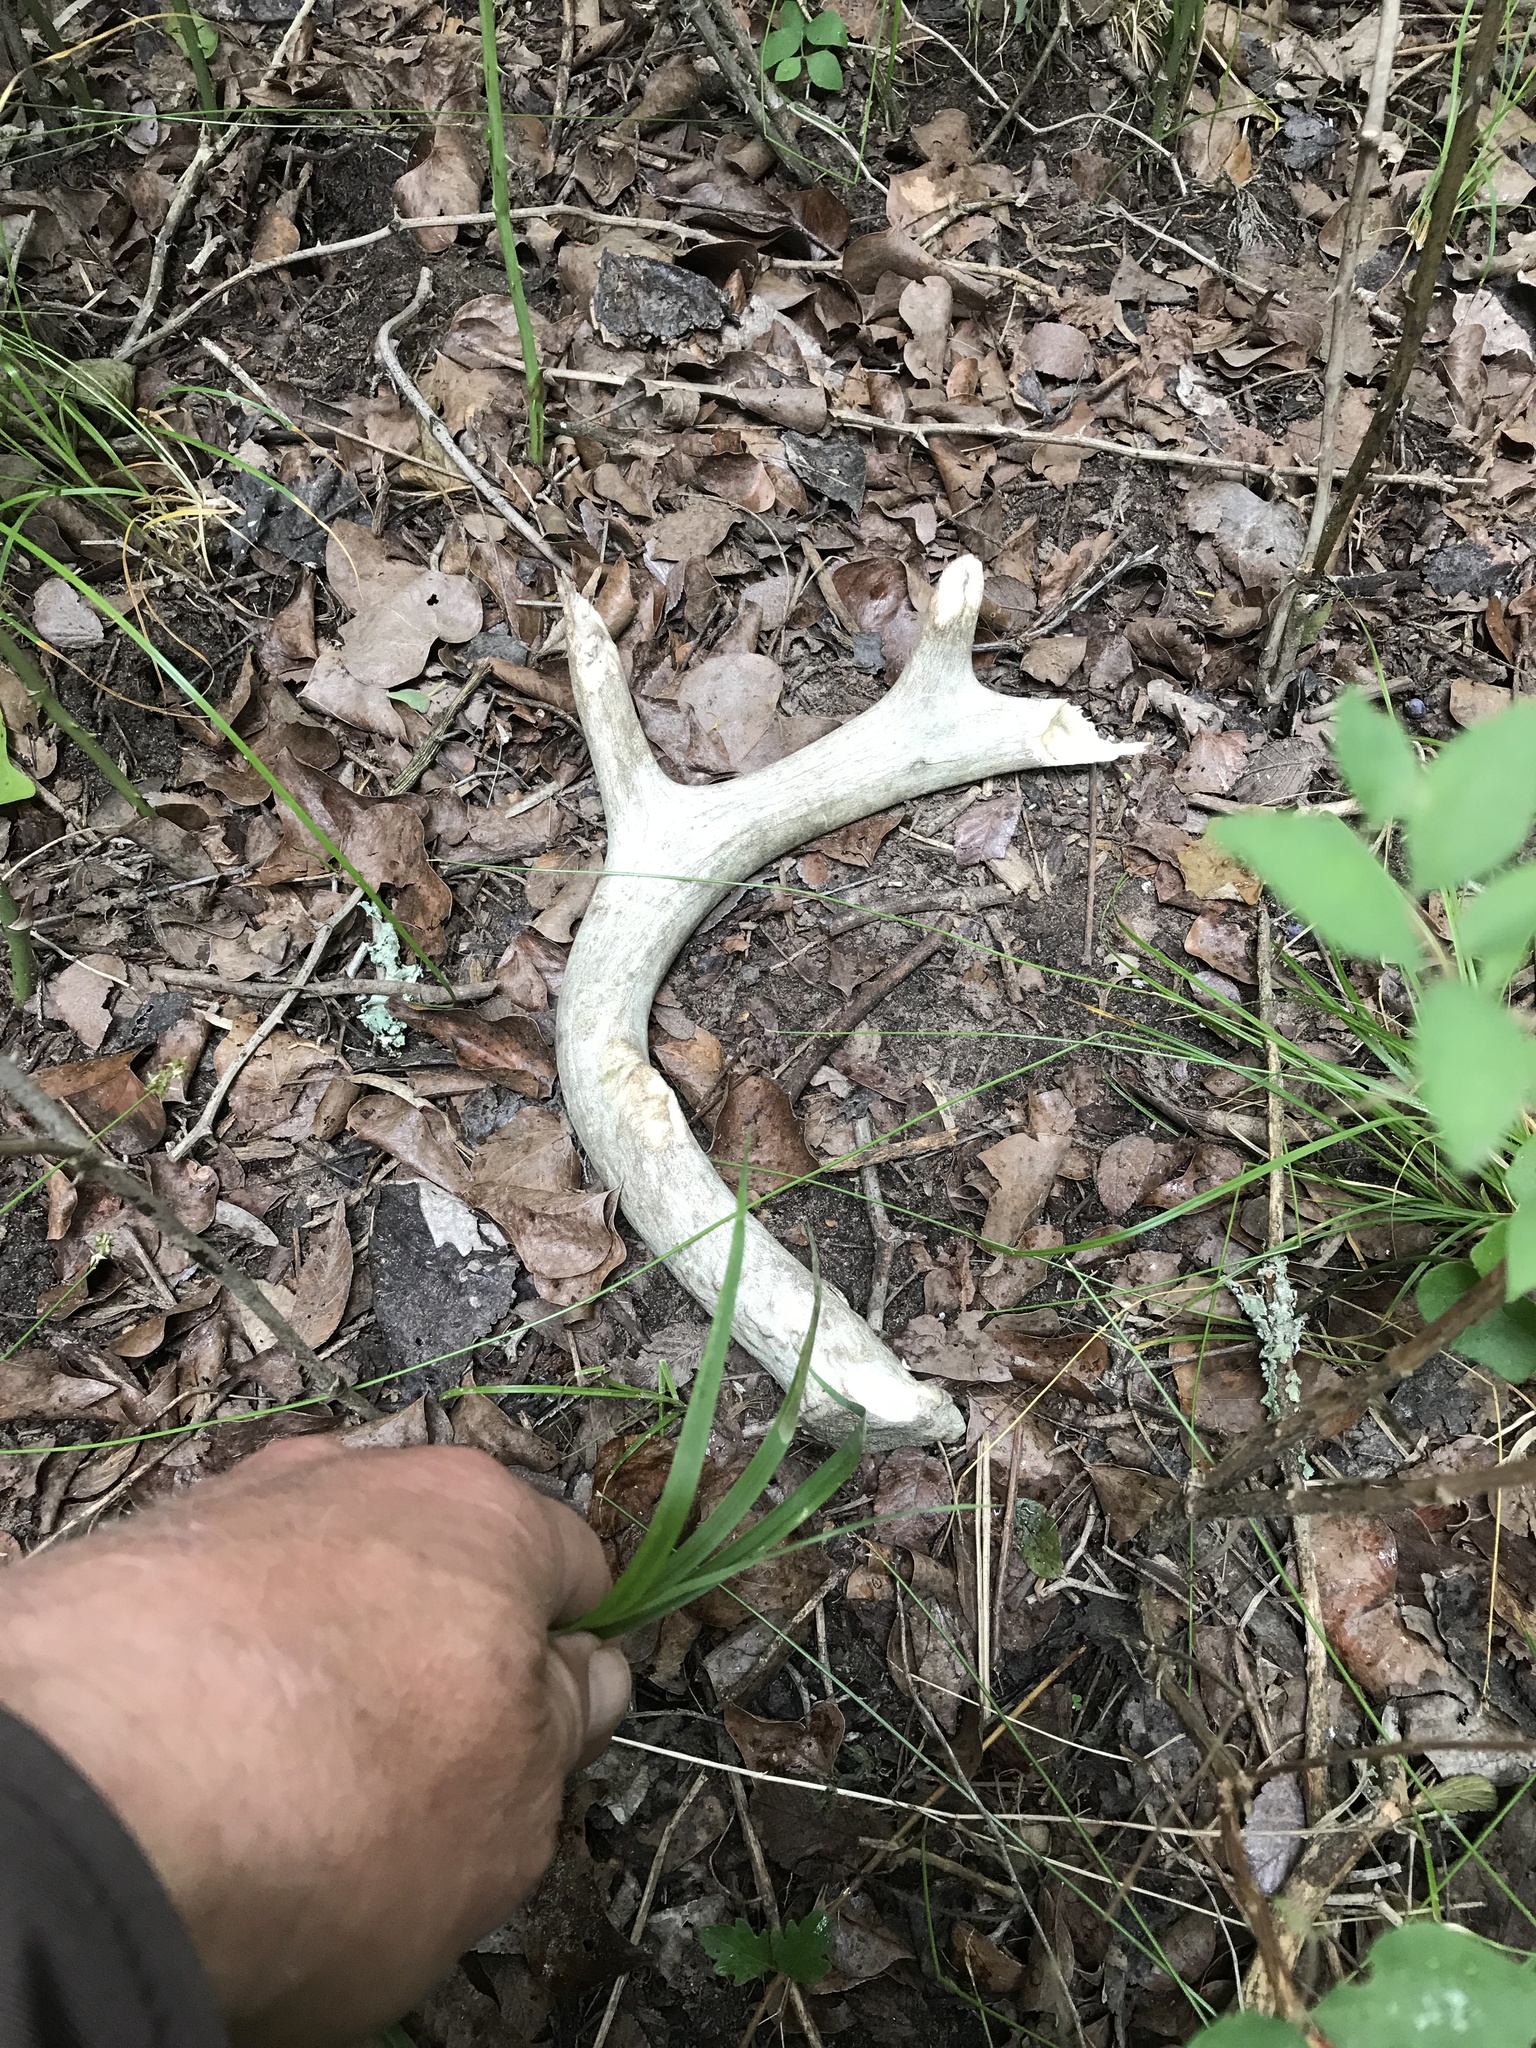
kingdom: Animalia
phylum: Chordata
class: Mammalia
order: Artiodactyla
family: Cervidae
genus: Odocoileus
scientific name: Odocoileus virginianus
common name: White-tailed deer
